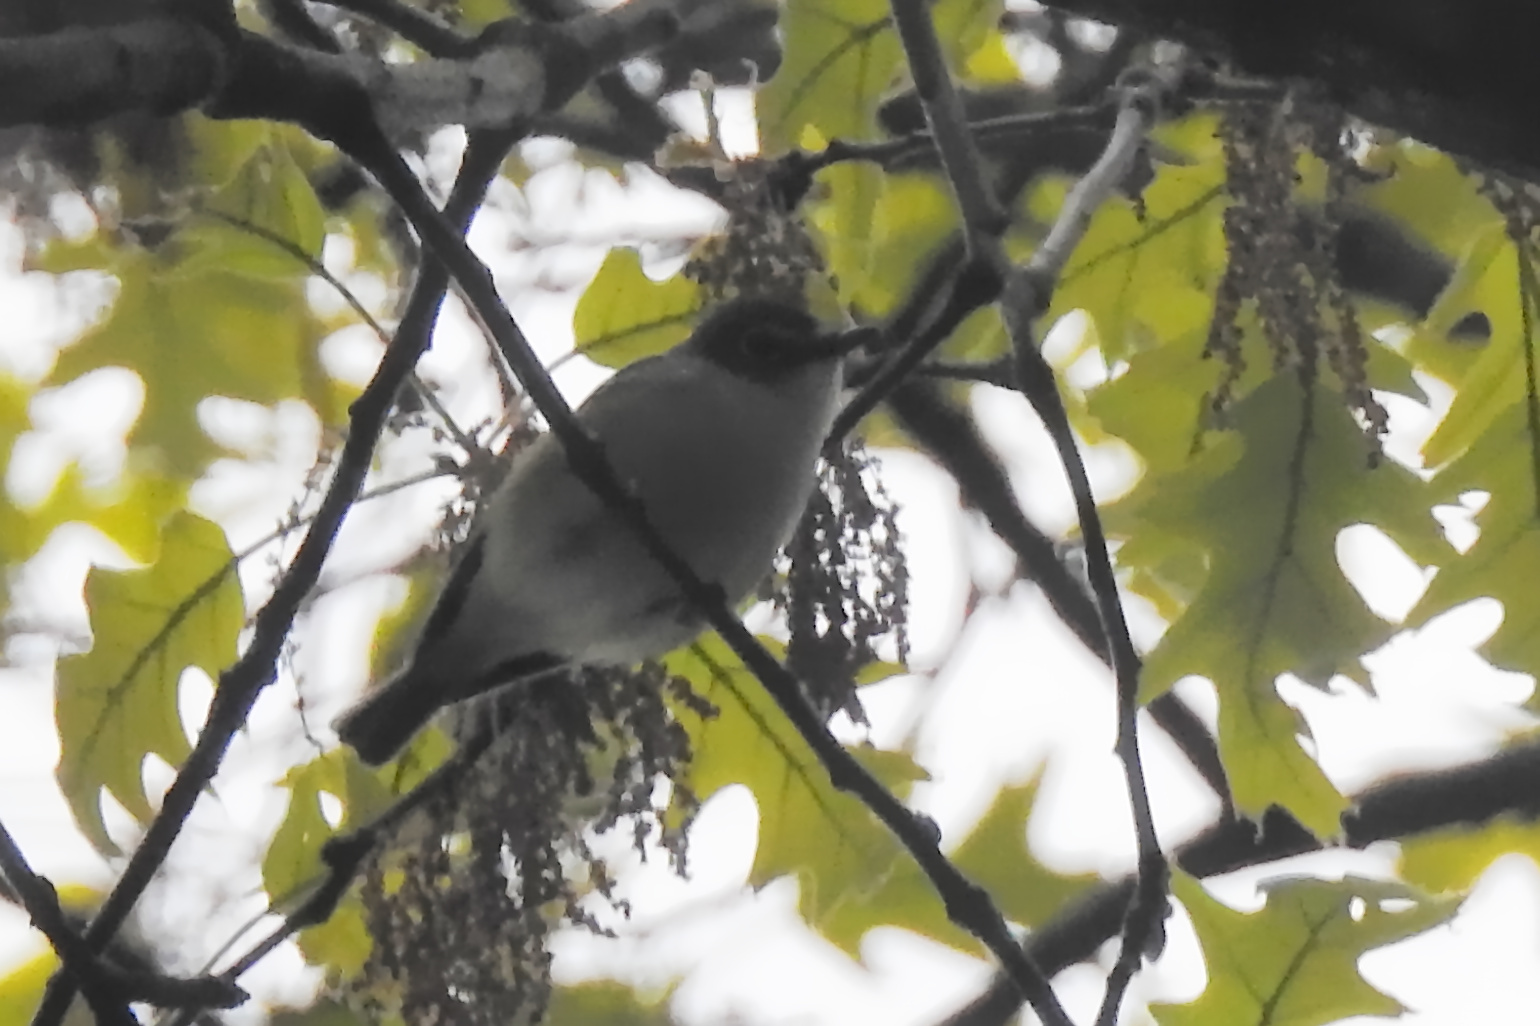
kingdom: Animalia
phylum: Chordata
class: Aves
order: Passeriformes
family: Vireonidae
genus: Vireo
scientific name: Vireo solitarius
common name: Blue-headed vireo
